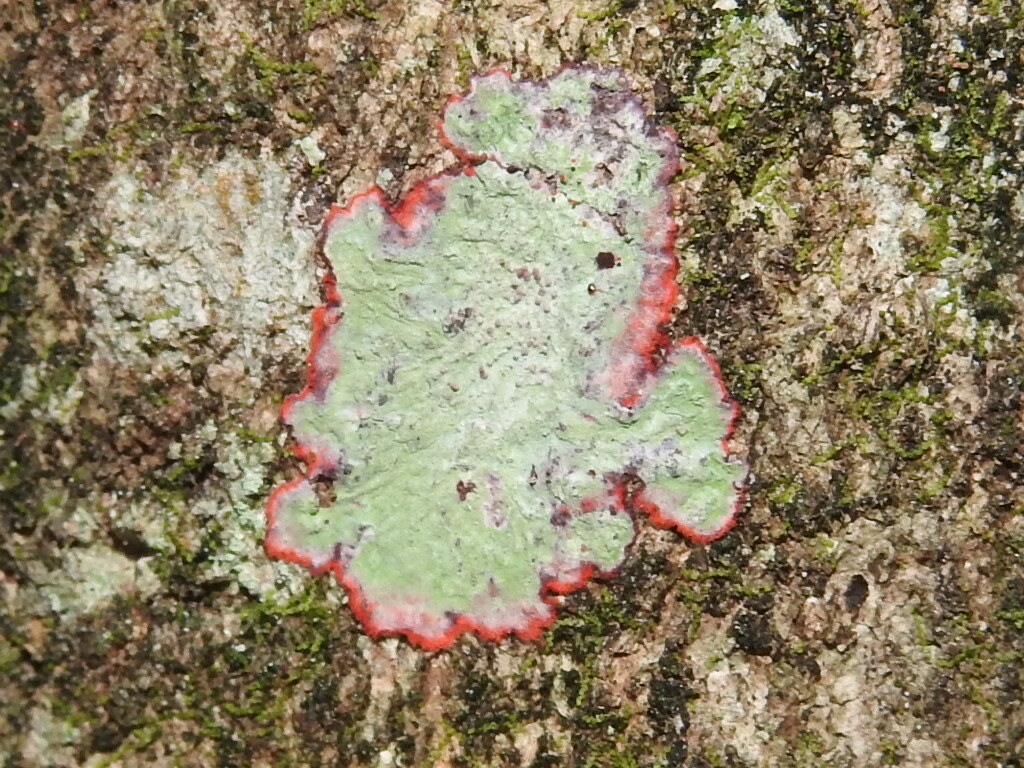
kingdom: Fungi
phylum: Ascomycota
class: Arthoniomycetes
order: Arthoniales
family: Arthoniaceae
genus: Herpothallon
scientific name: Herpothallon rubrocinctum
